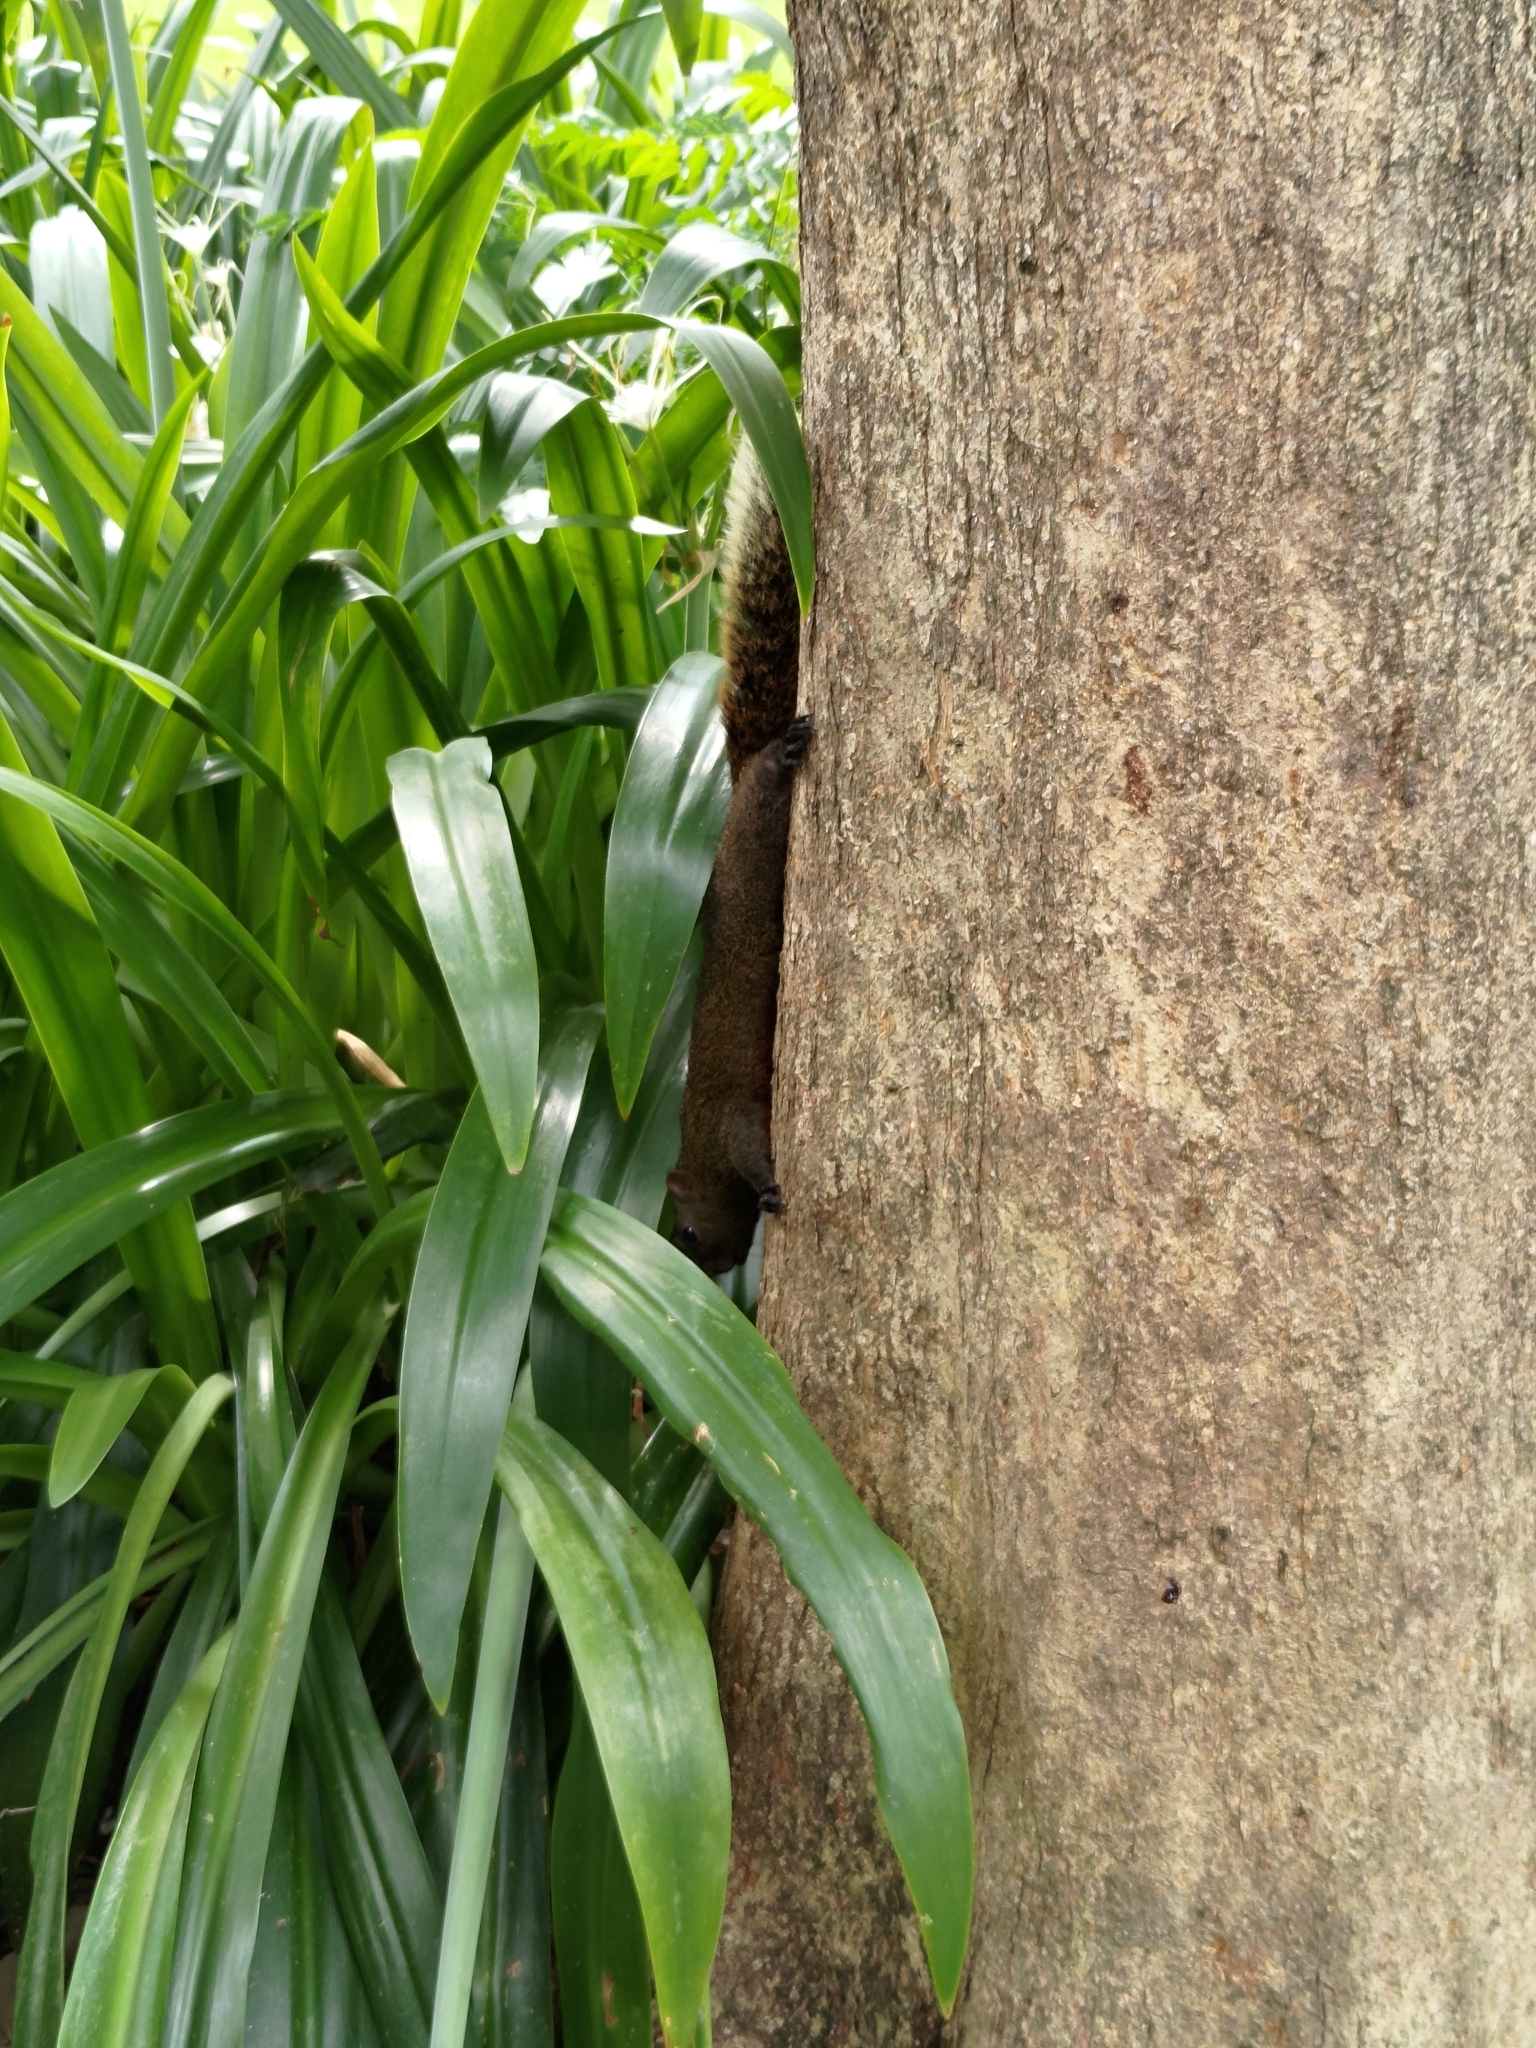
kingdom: Animalia
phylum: Chordata
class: Mammalia
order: Rodentia
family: Sciuridae
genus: Callosciurus
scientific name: Callosciurus erythraeus
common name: Pallas's squirrel
